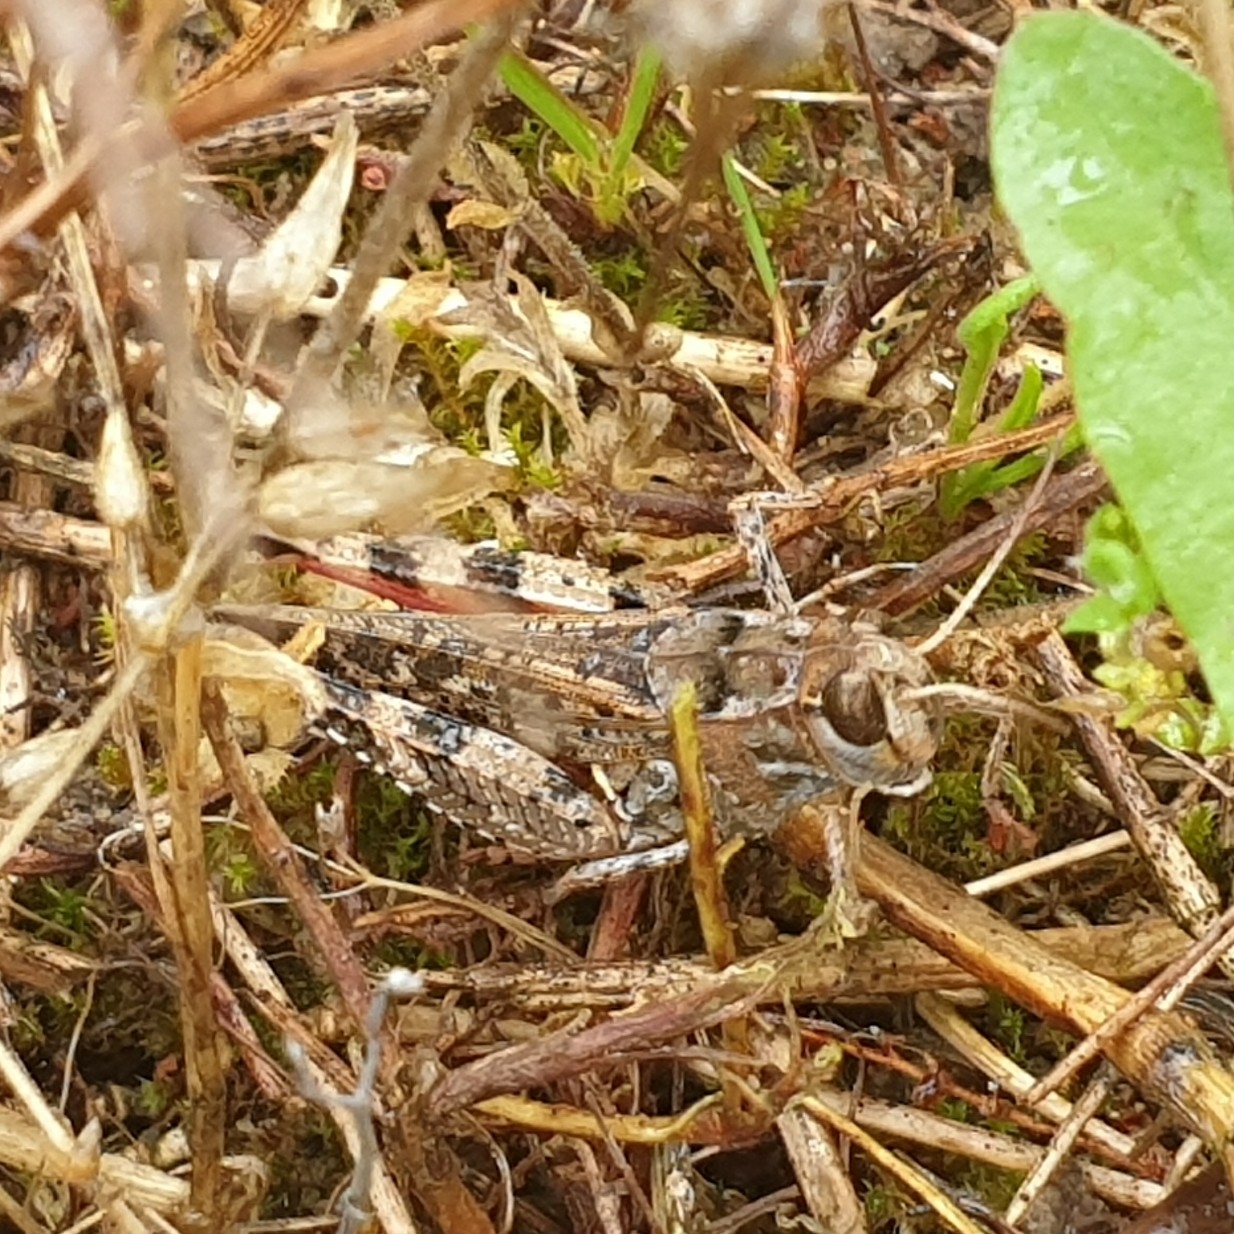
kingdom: Animalia
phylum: Arthropoda
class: Insecta
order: Orthoptera
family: Acrididae
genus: Calliptamus
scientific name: Calliptamus italicus
